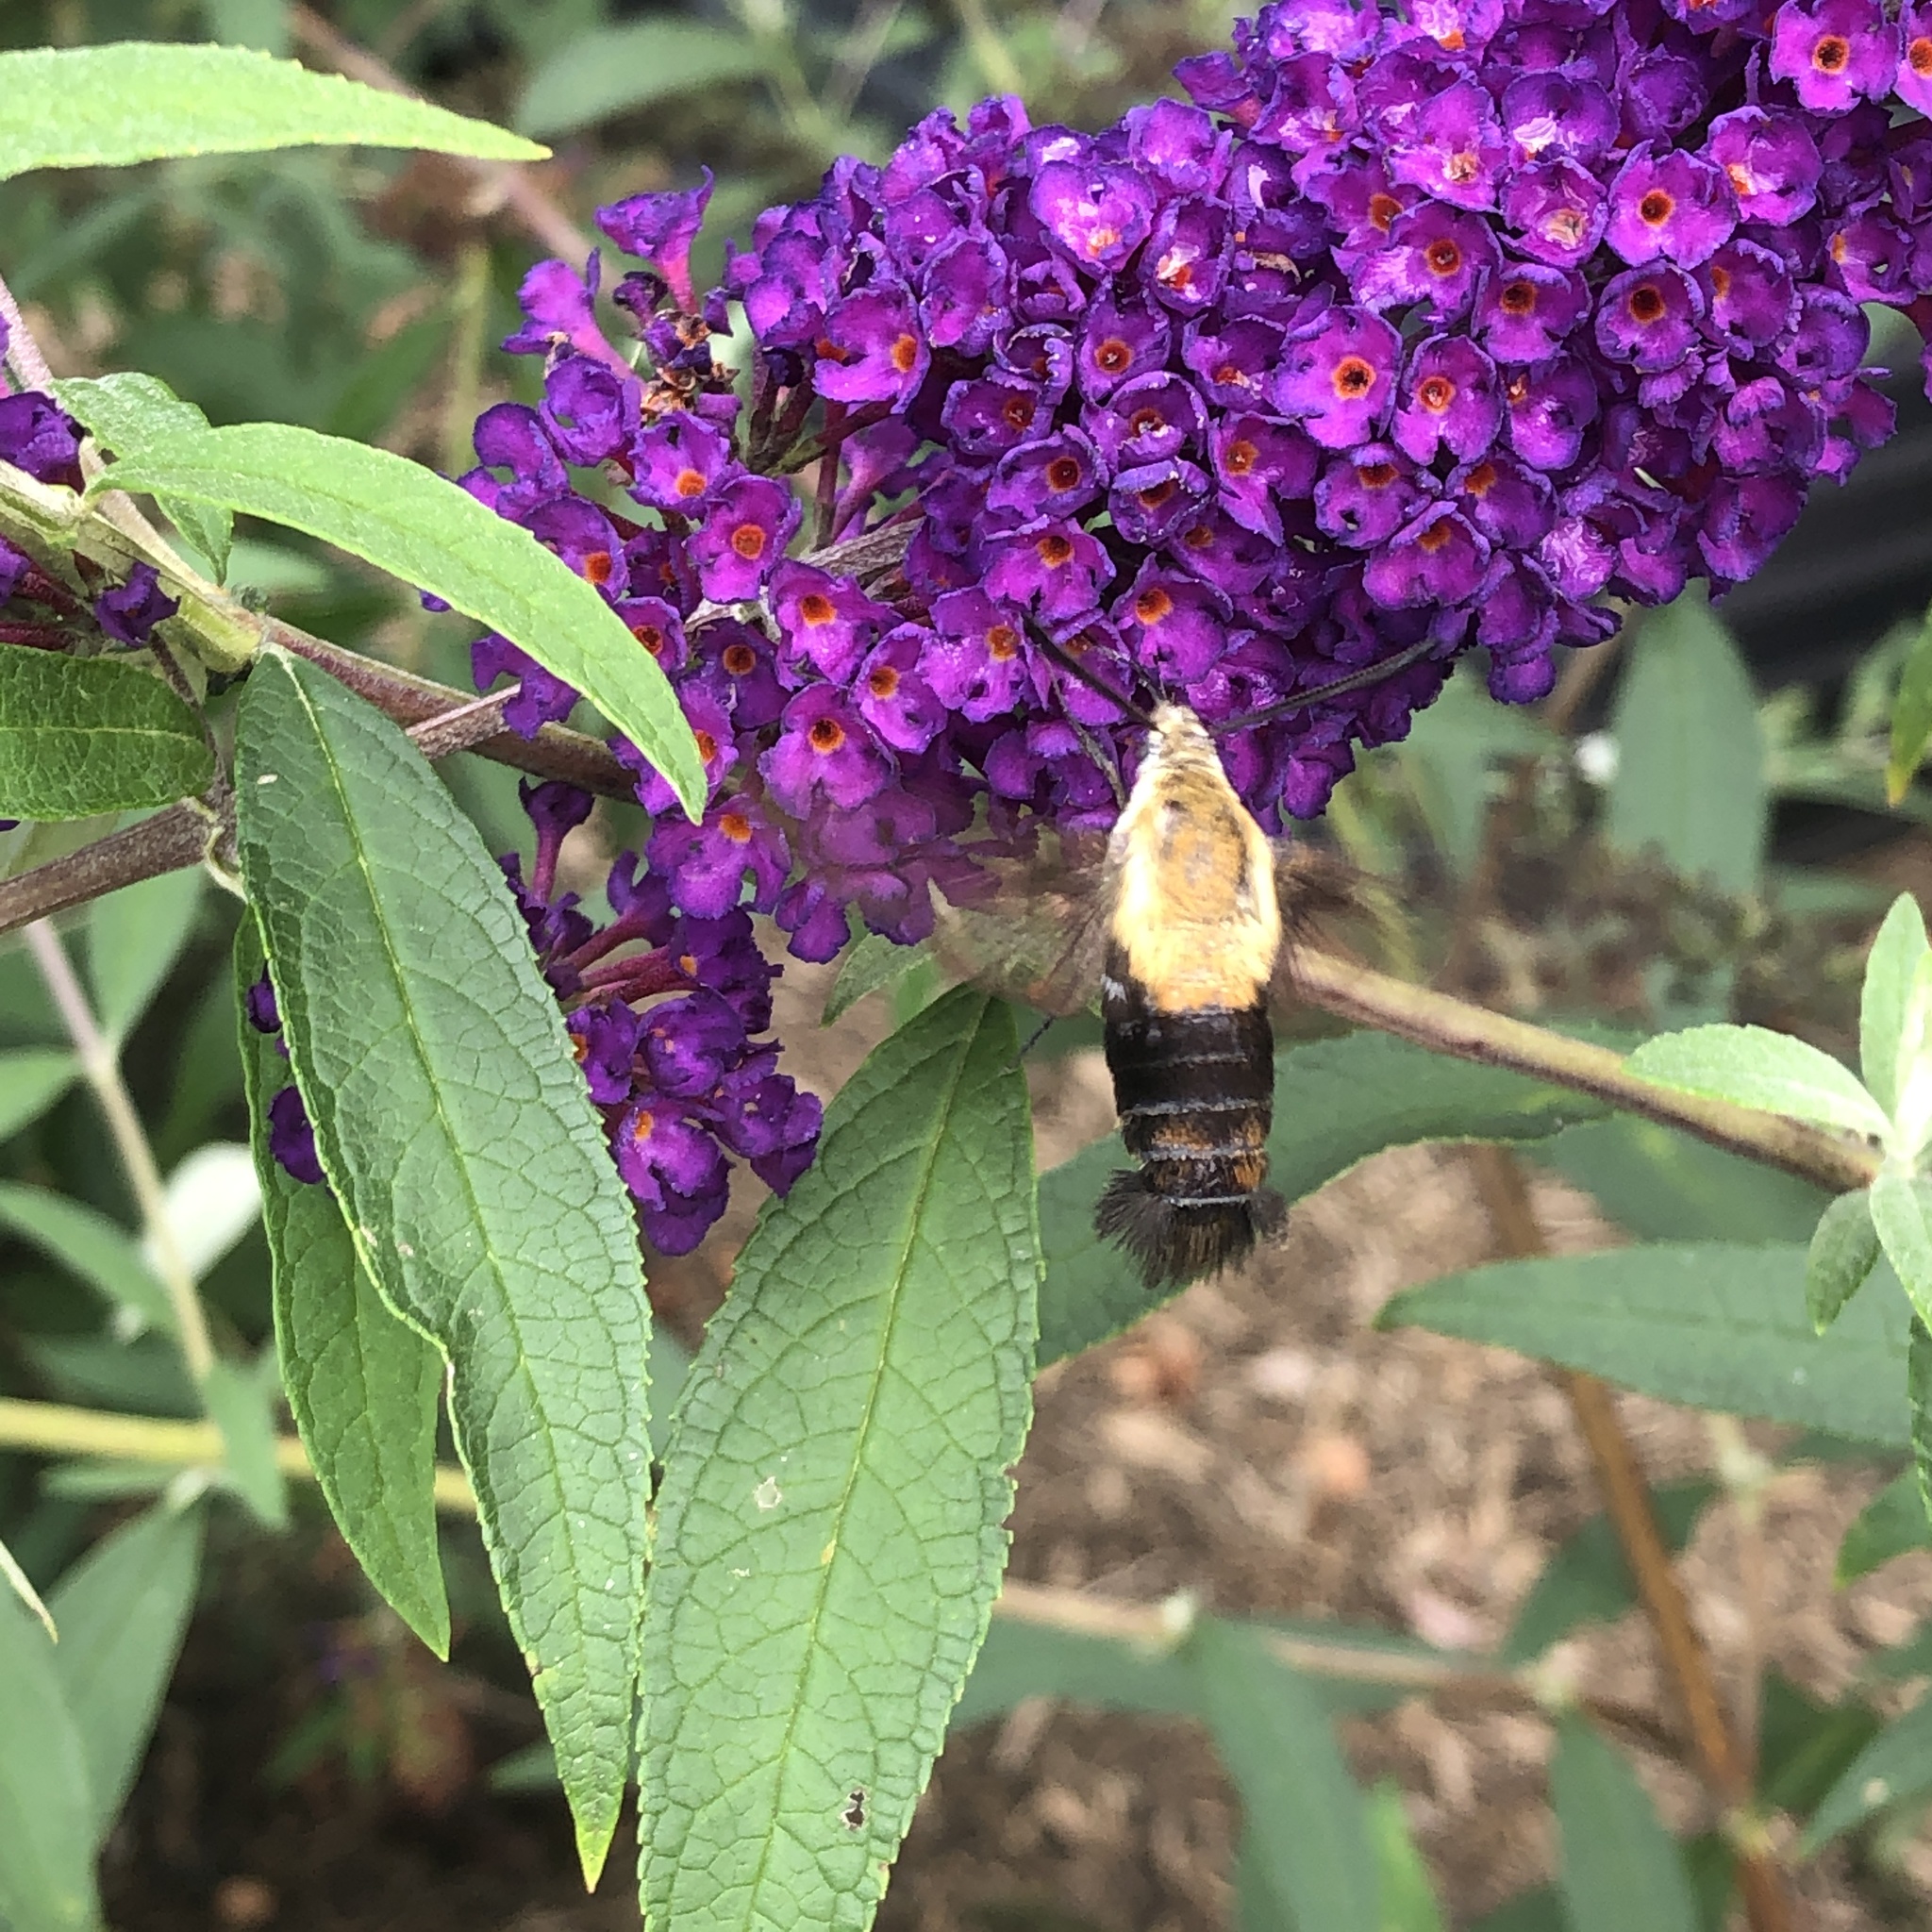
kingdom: Animalia
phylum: Arthropoda
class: Insecta
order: Lepidoptera
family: Sphingidae
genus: Hemaris
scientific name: Hemaris diffinis
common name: Bumblebee moth
